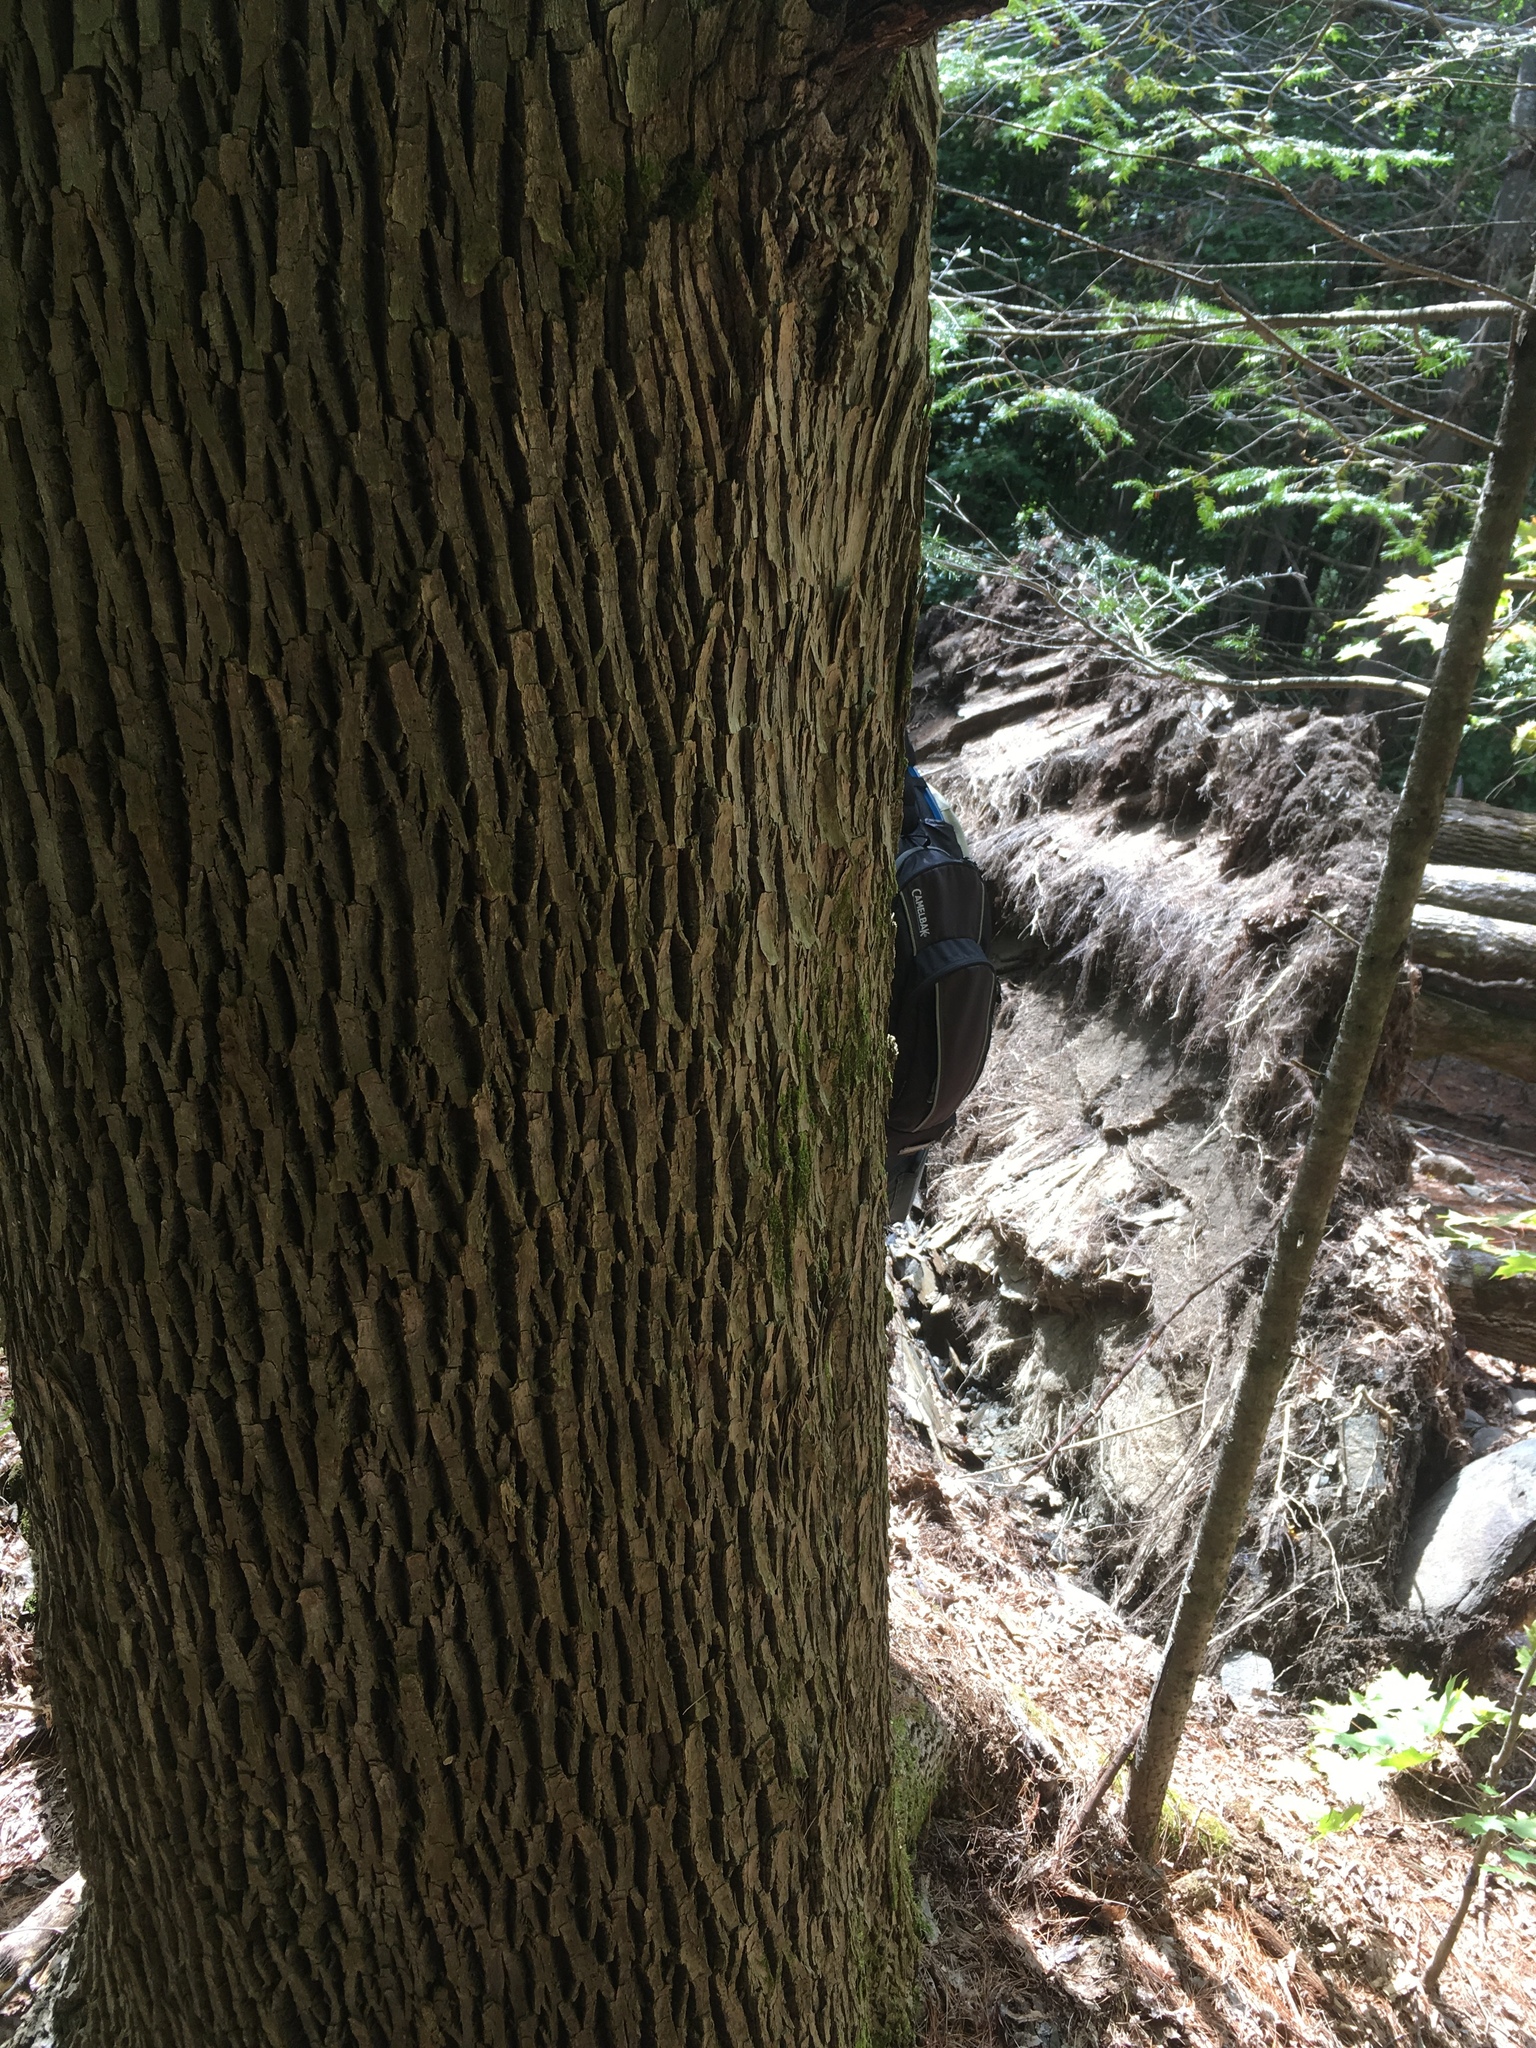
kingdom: Plantae
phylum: Tracheophyta
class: Magnoliopsida
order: Lamiales
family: Oleaceae
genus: Fraxinus
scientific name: Fraxinus americana
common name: White ash
